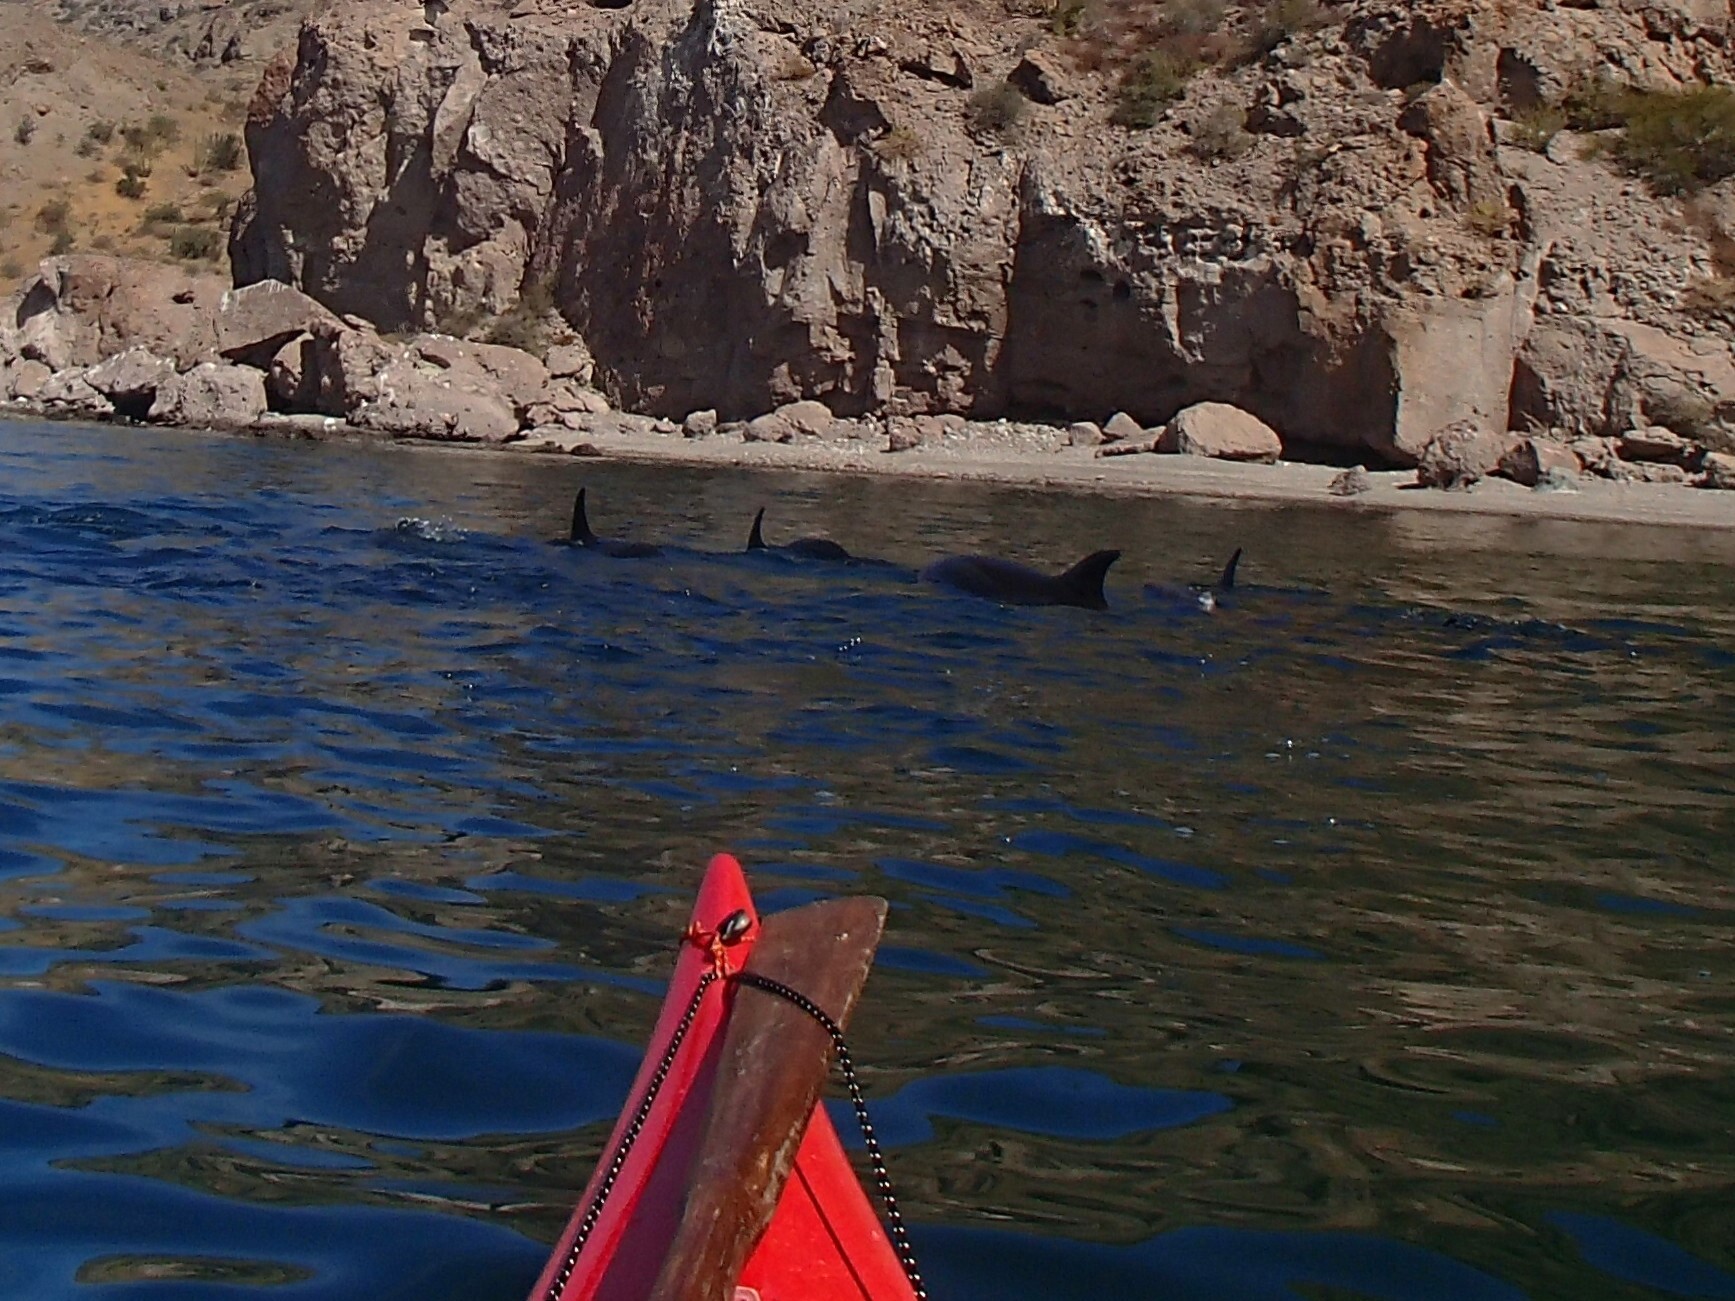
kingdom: Animalia
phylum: Chordata
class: Mammalia
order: Cetacea
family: Delphinidae
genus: Tursiops
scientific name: Tursiops truncatus
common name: Bottlenose dolphin
